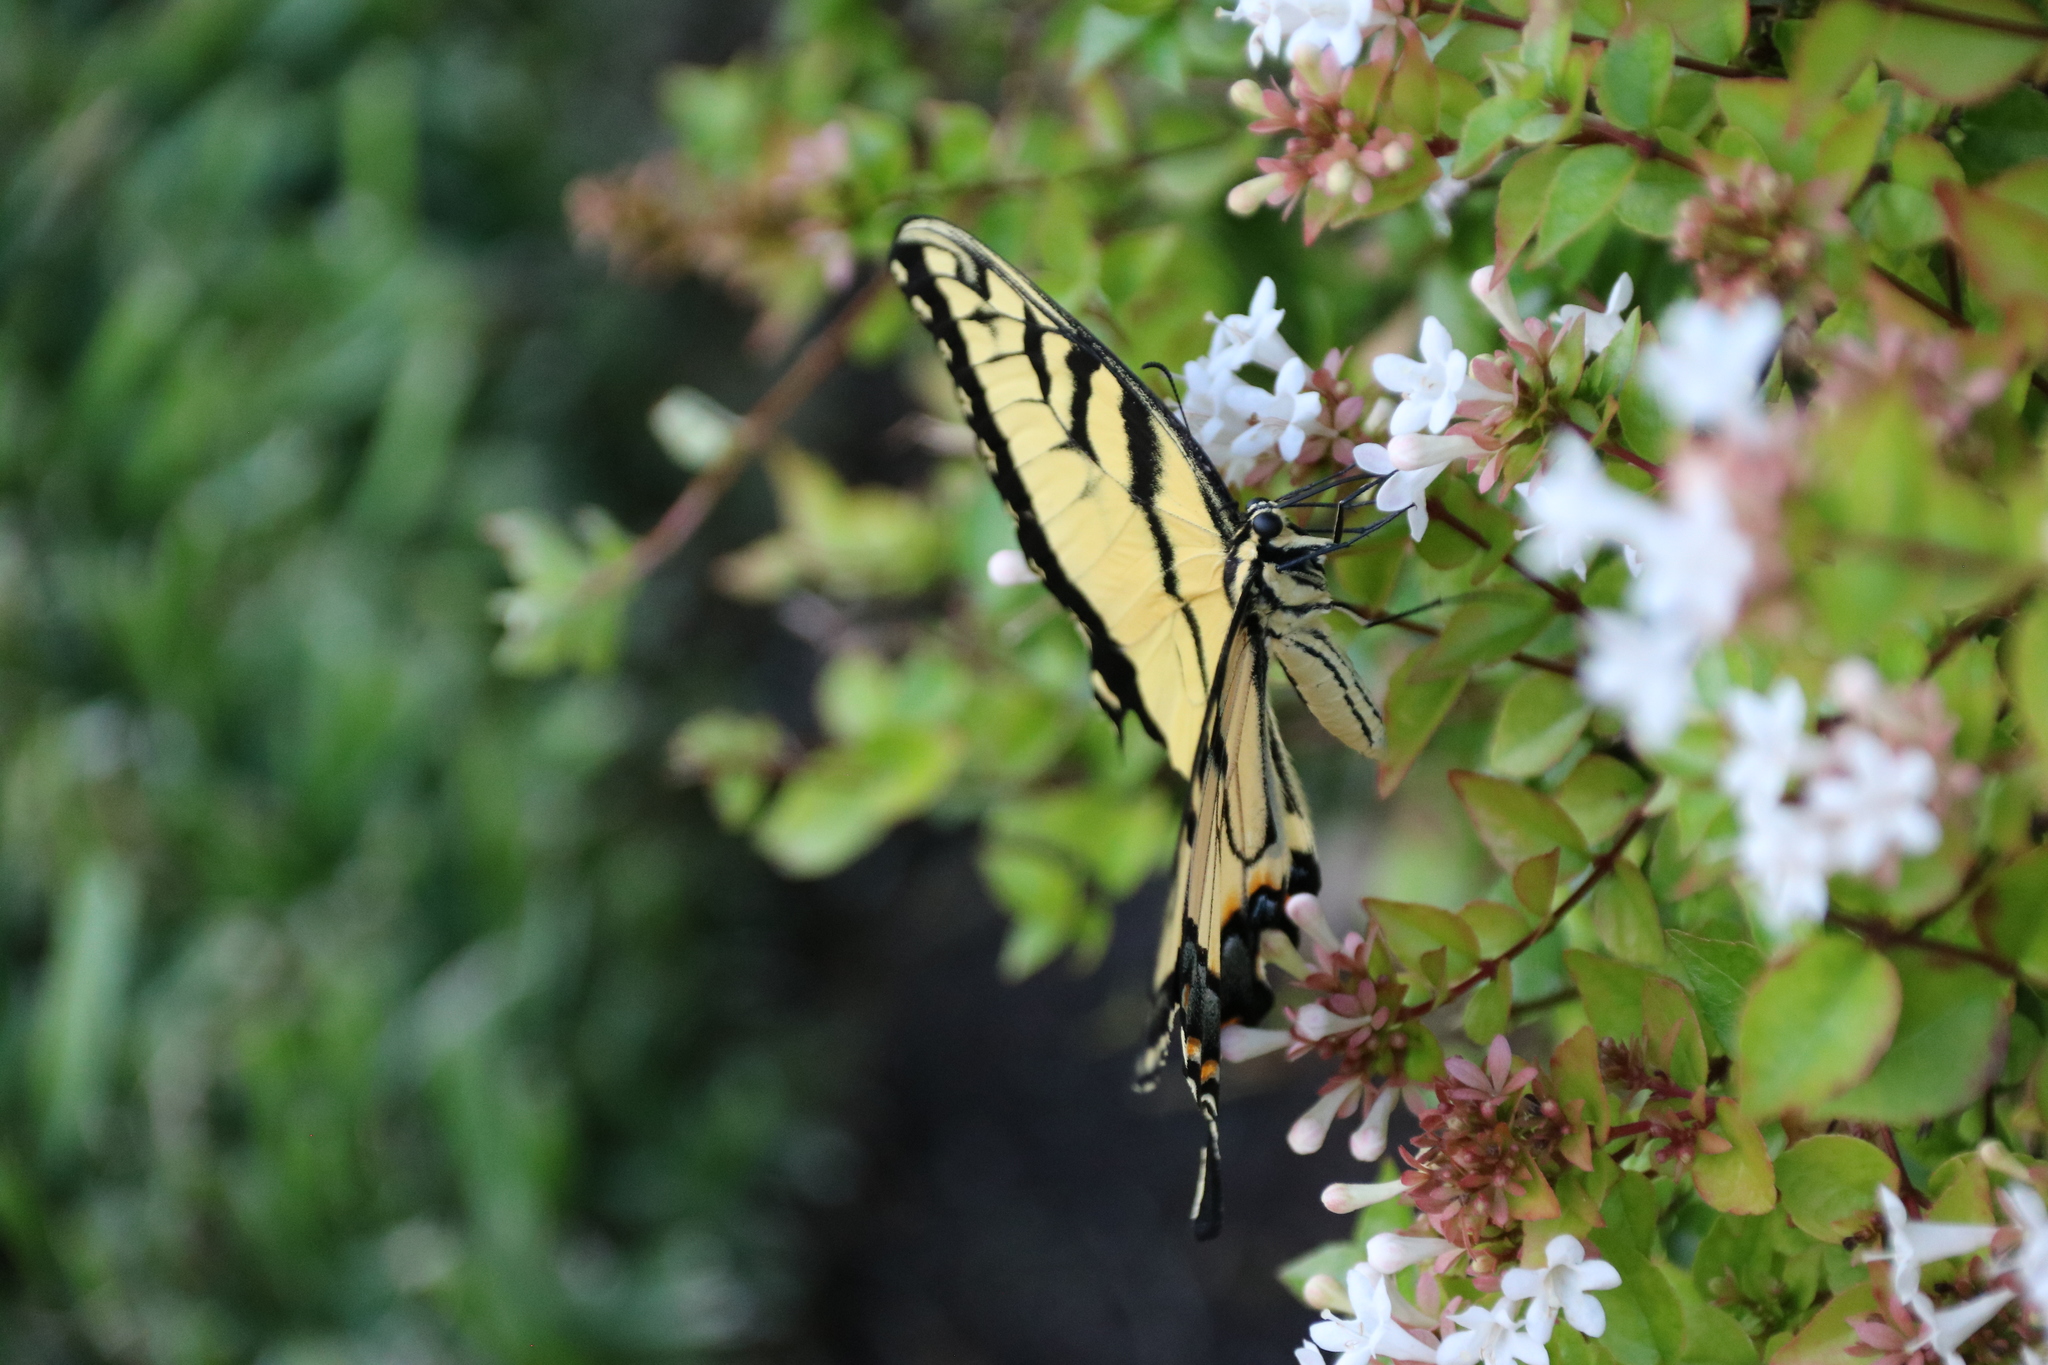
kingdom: Animalia
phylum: Arthropoda
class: Insecta
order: Lepidoptera
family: Papilionidae
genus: Papilio
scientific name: Papilio glaucus
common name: Tiger swallowtail
